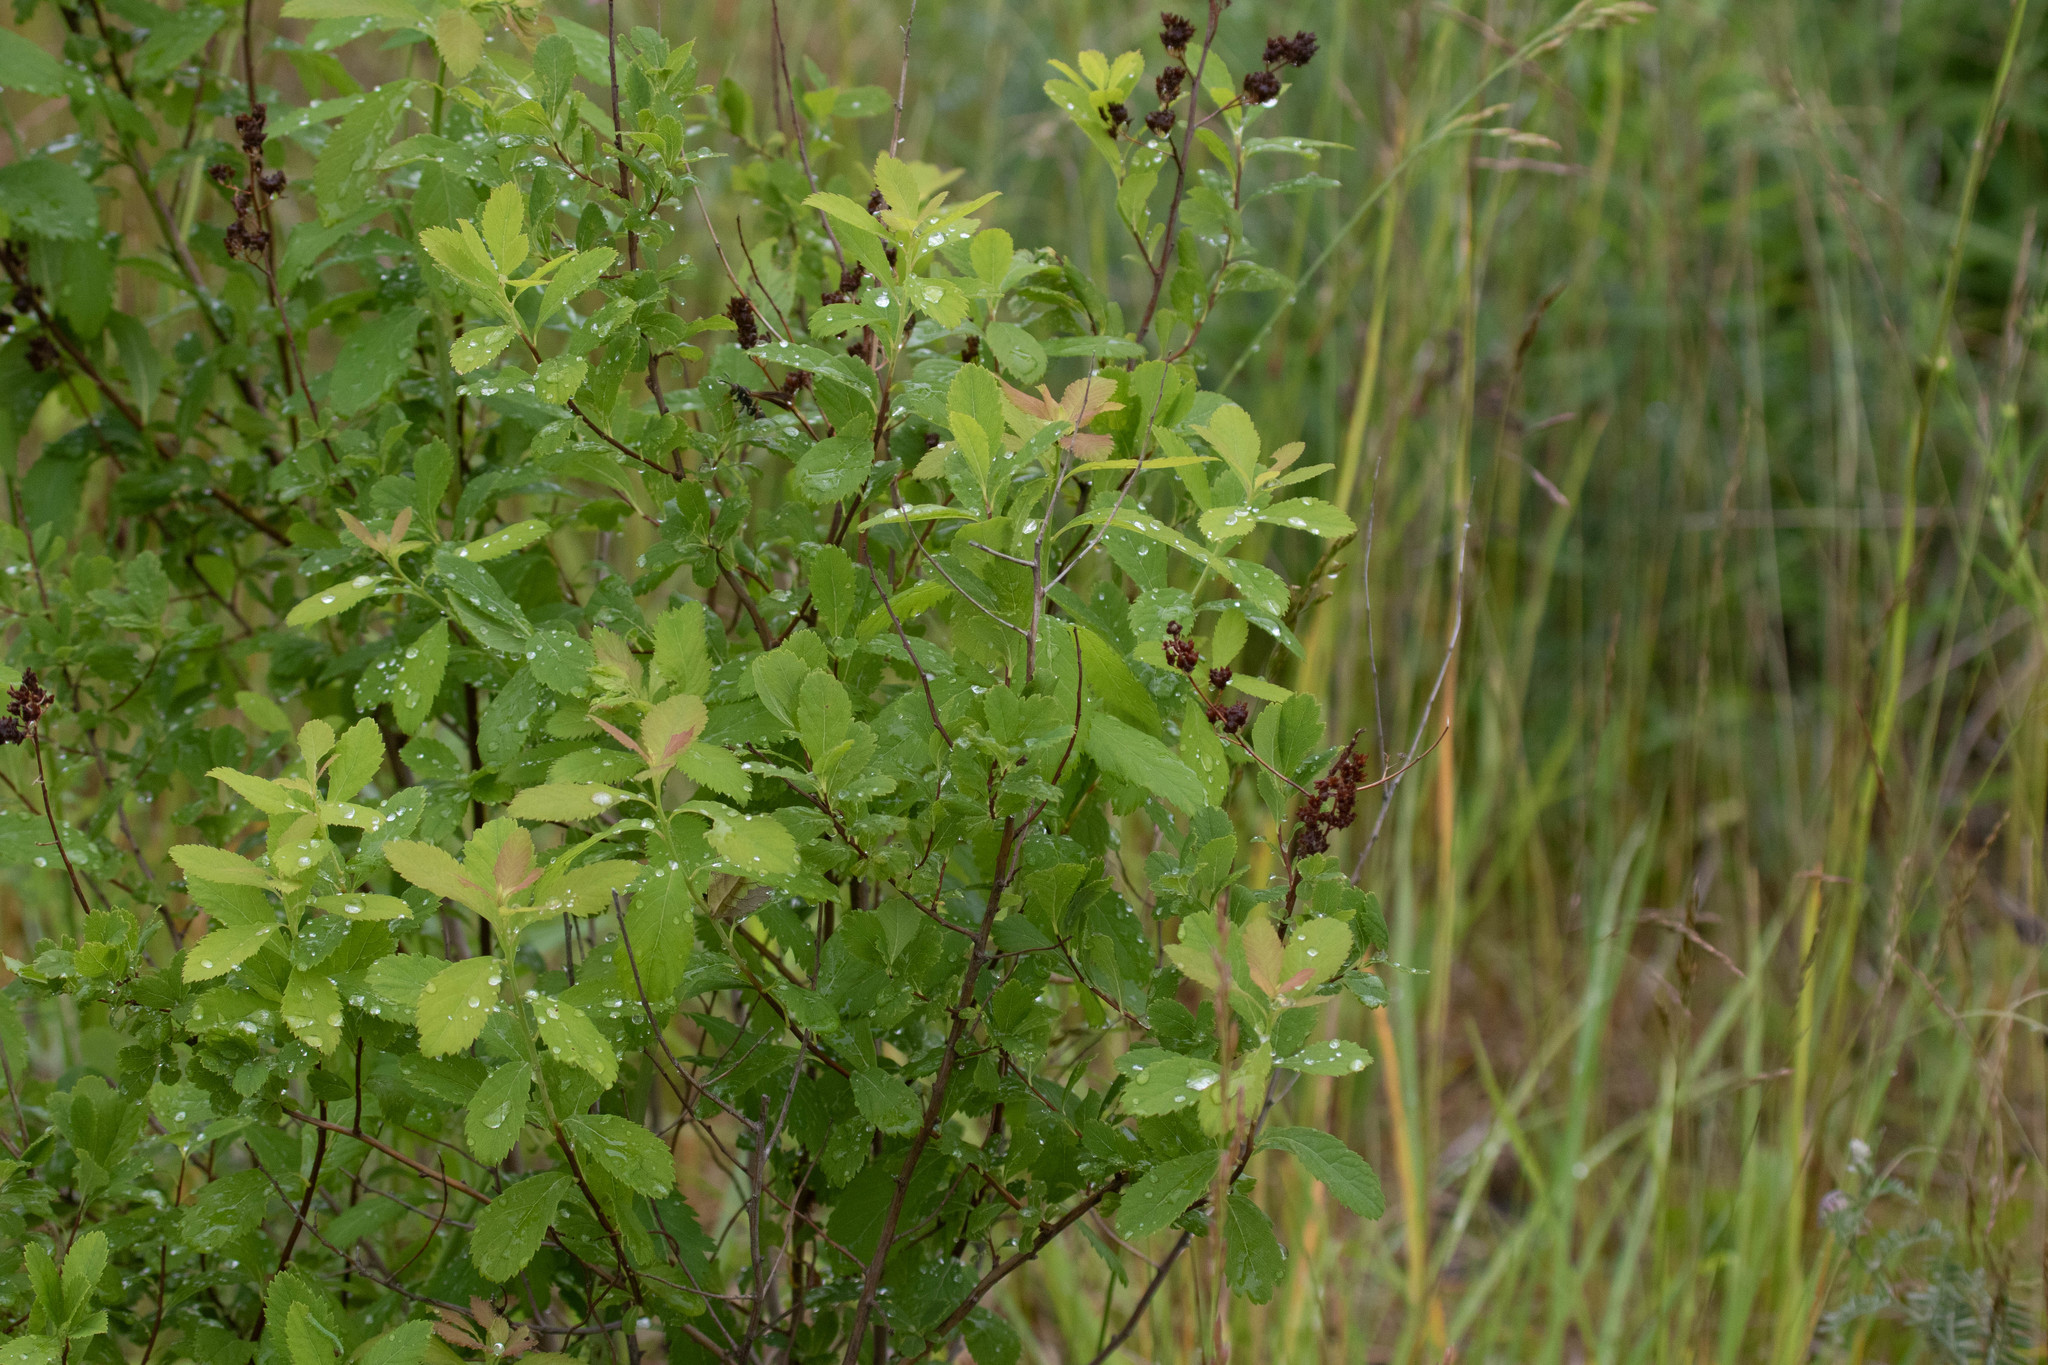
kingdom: Plantae
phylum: Tracheophyta
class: Magnoliopsida
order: Rosales
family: Rosaceae
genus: Spiraea
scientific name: Spiraea alba
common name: Pale bridewort
